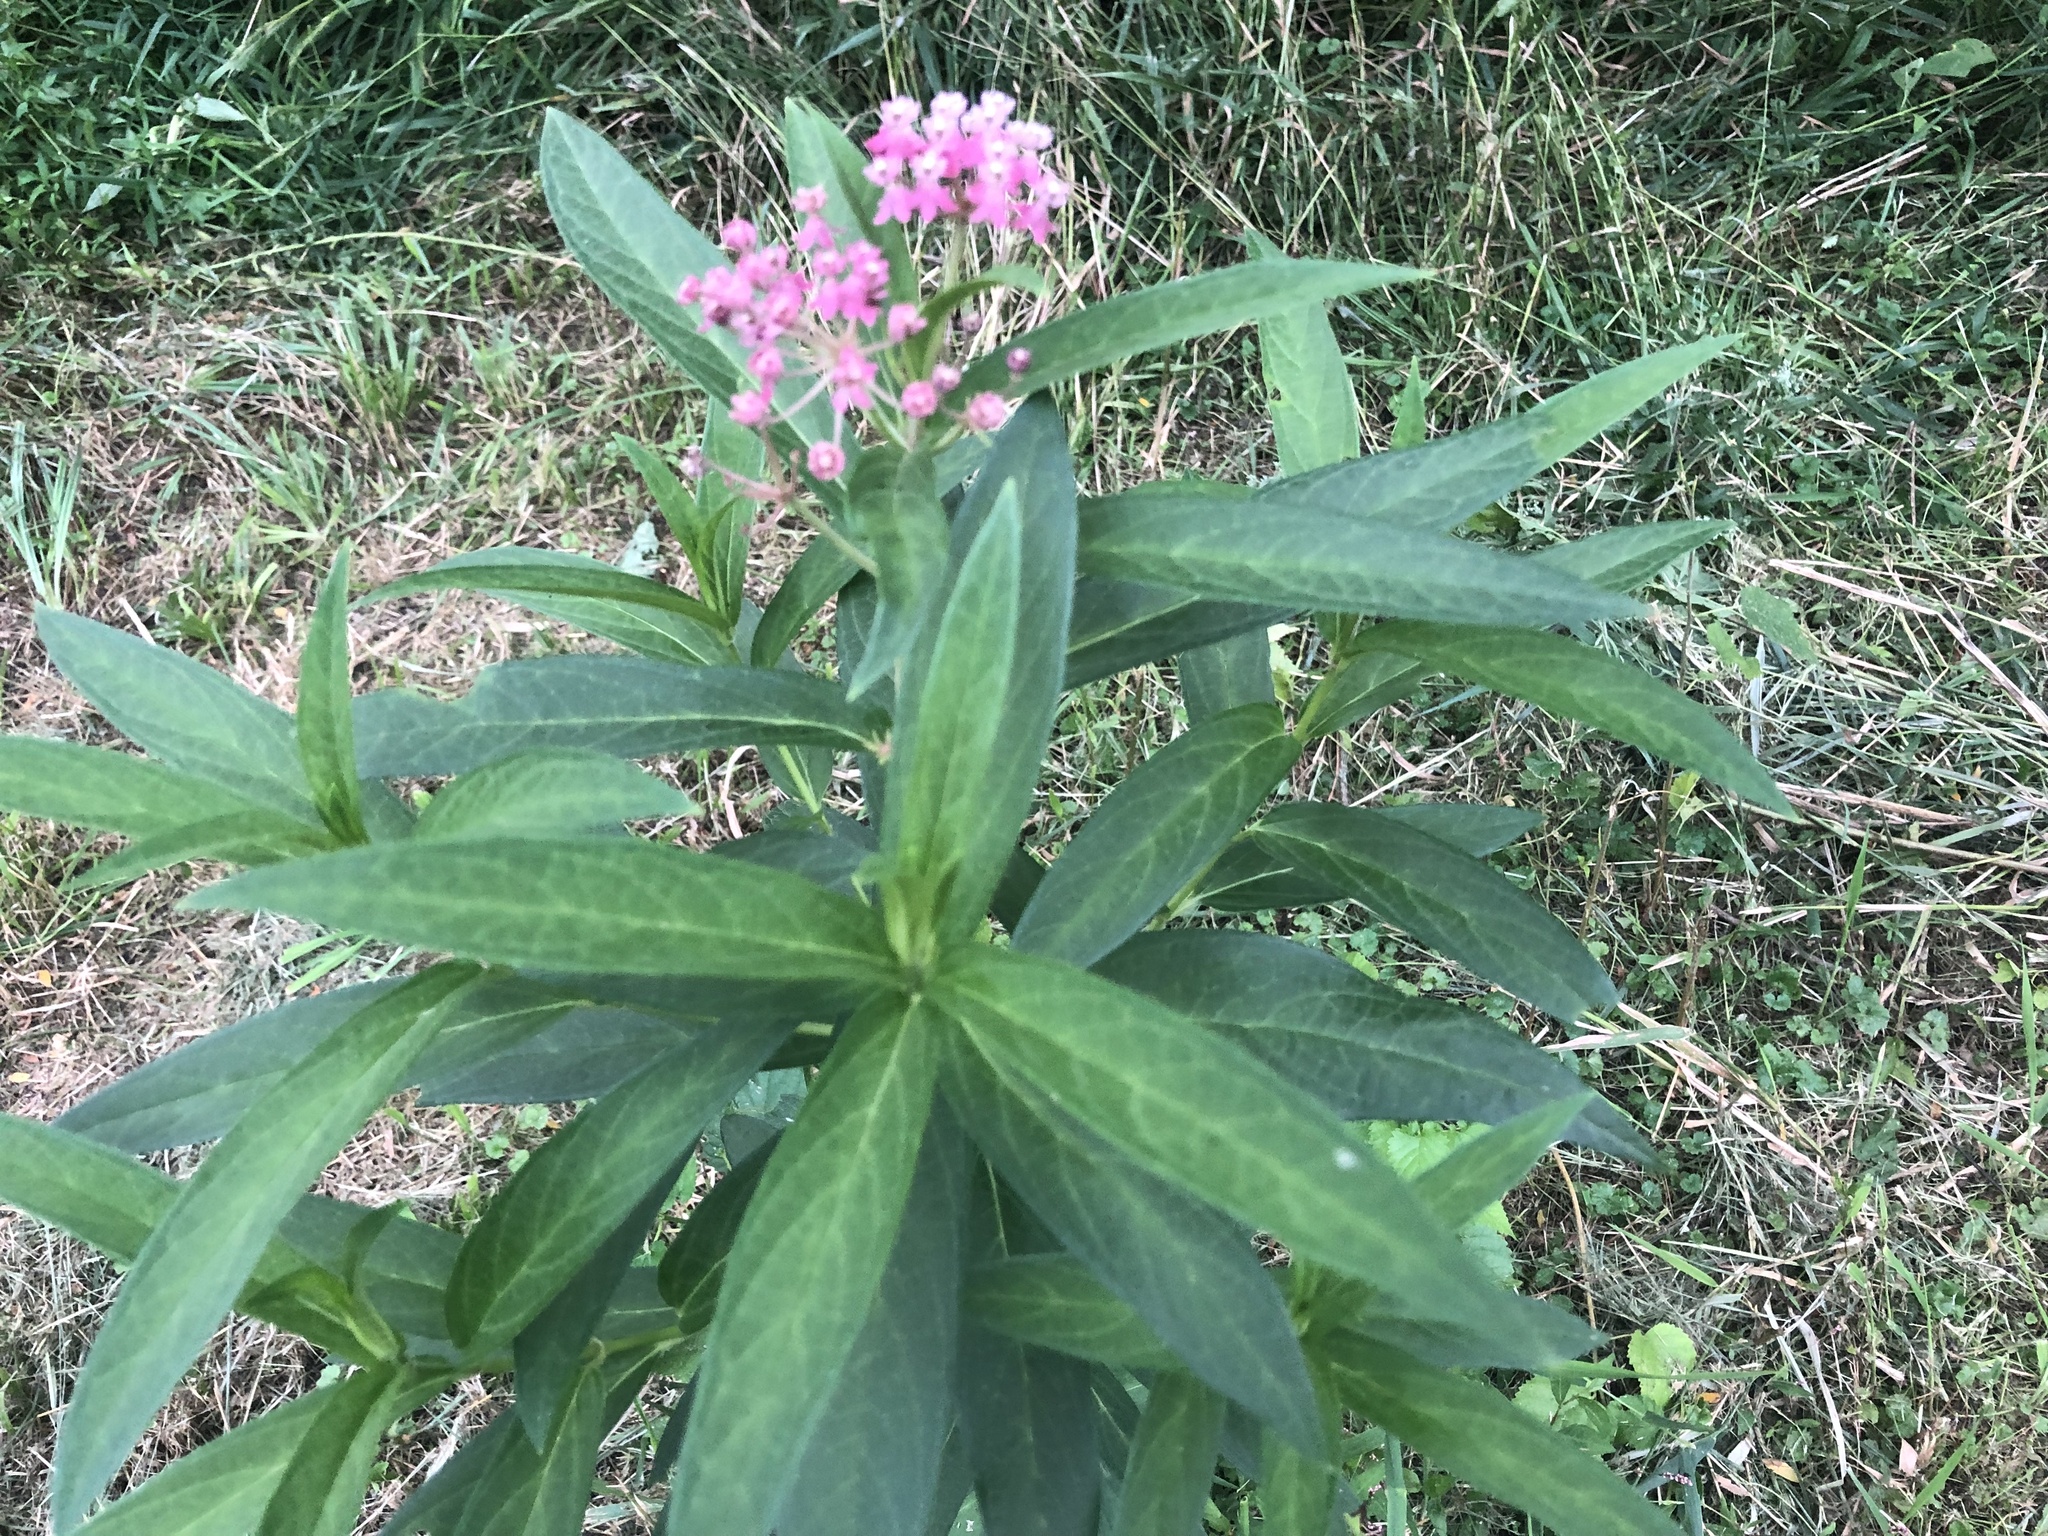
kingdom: Plantae
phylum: Tracheophyta
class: Magnoliopsida
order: Gentianales
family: Apocynaceae
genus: Asclepias
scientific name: Asclepias incarnata
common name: Swamp milkweed
